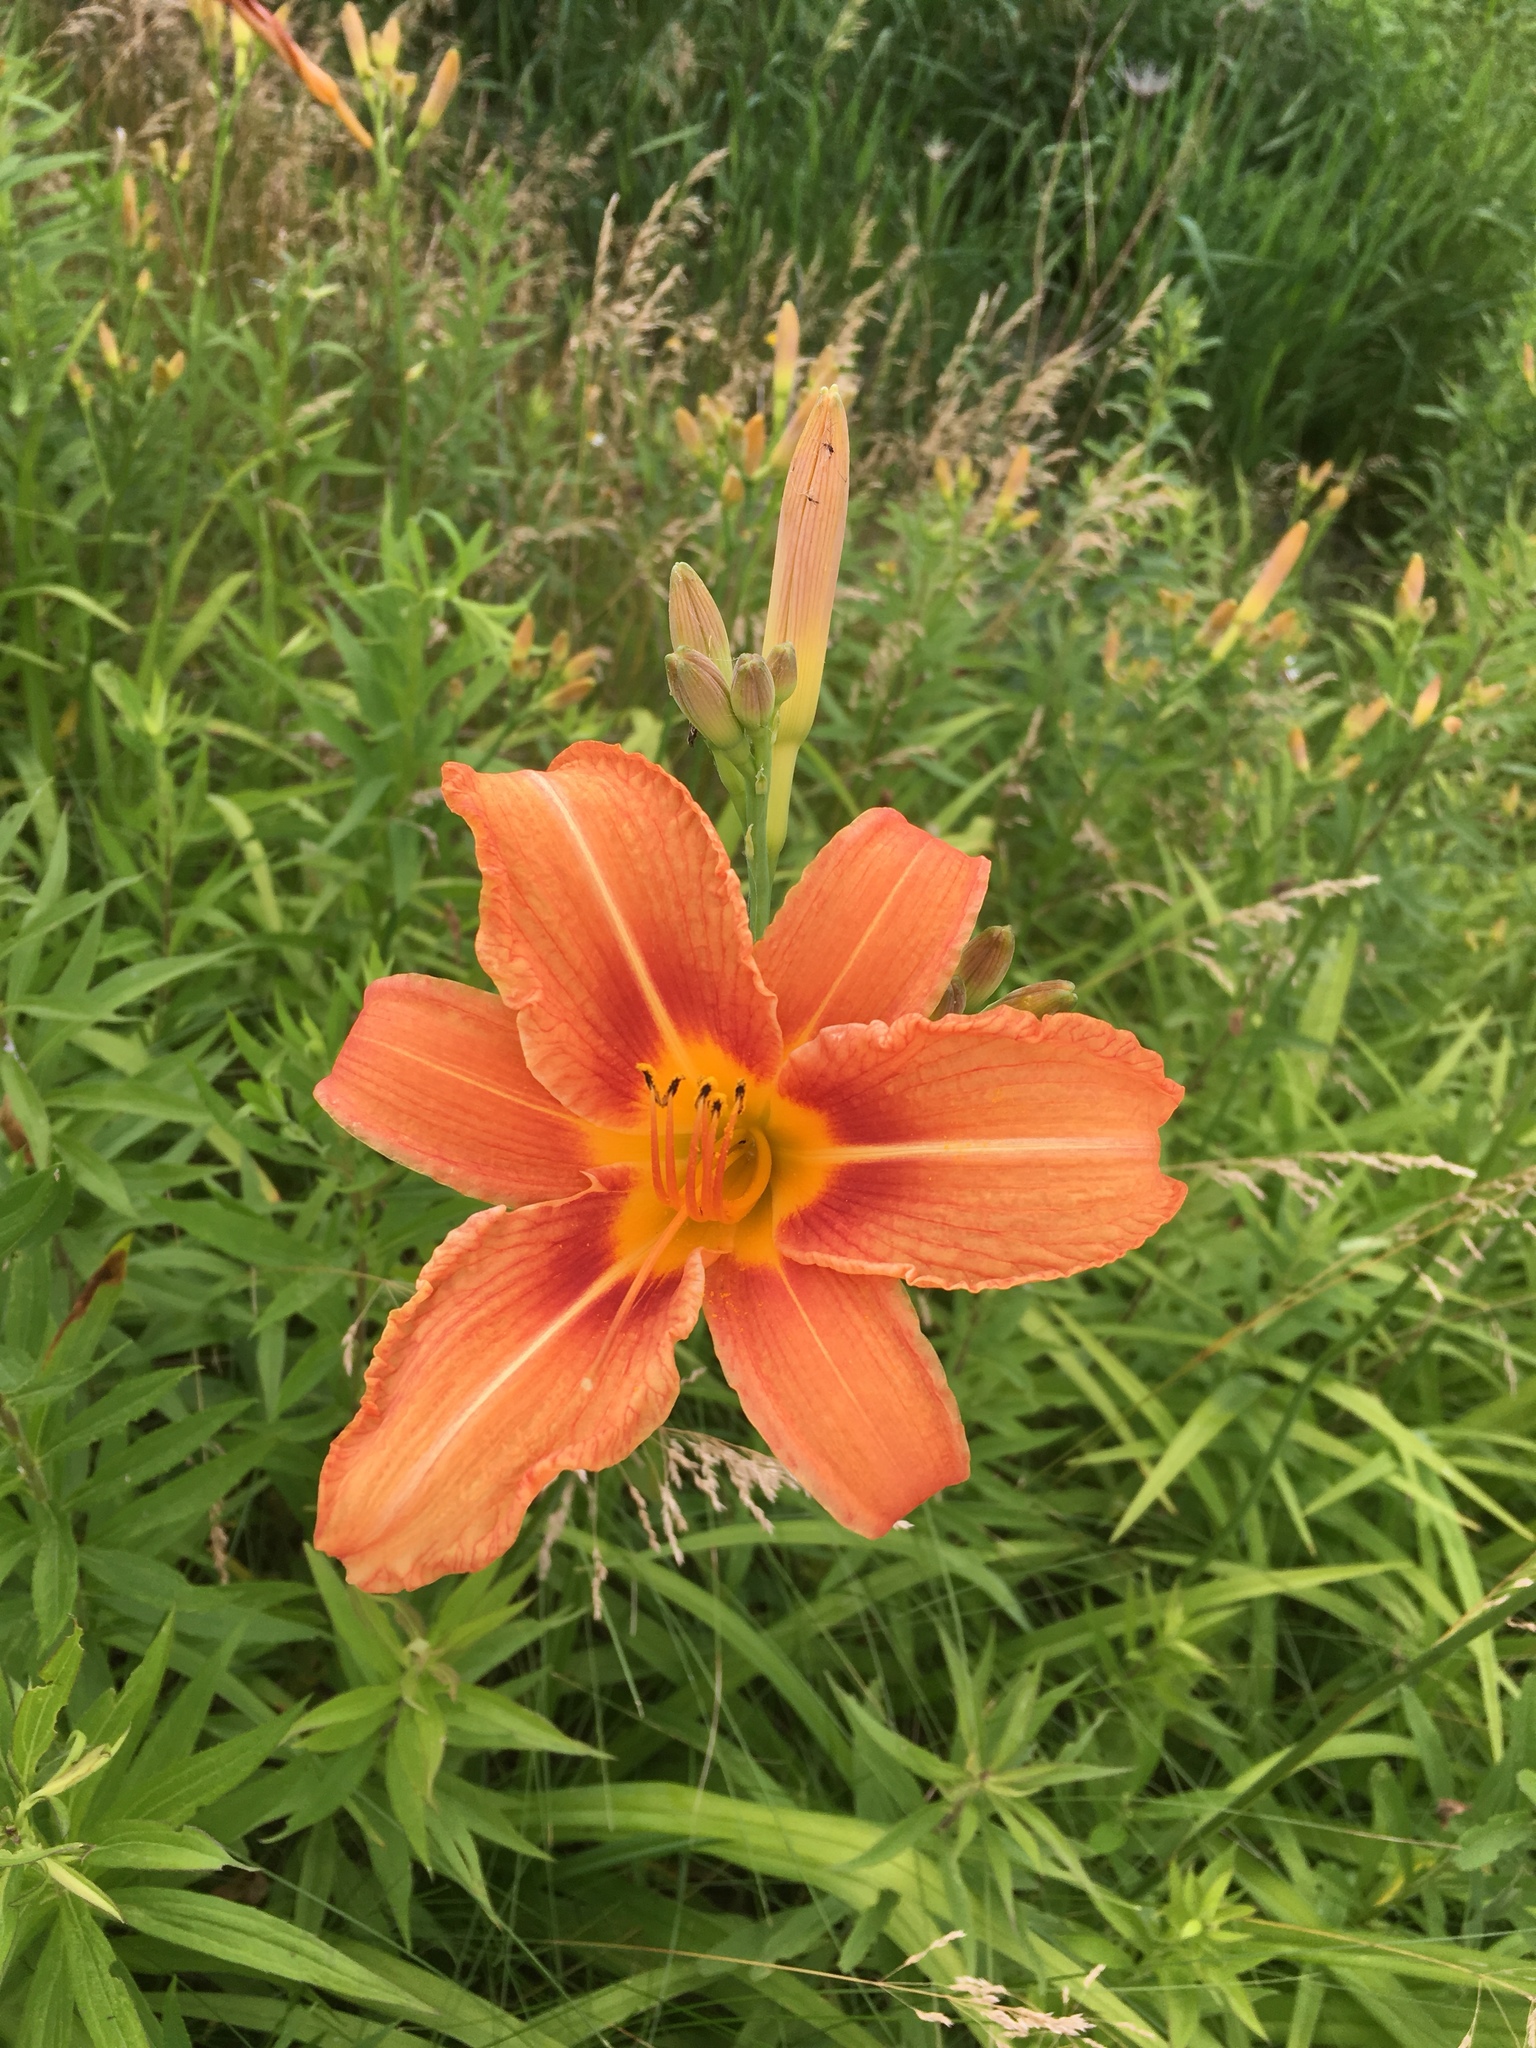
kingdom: Plantae
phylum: Tracheophyta
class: Liliopsida
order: Asparagales
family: Asphodelaceae
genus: Hemerocallis
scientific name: Hemerocallis fulva
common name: Orange day-lily
